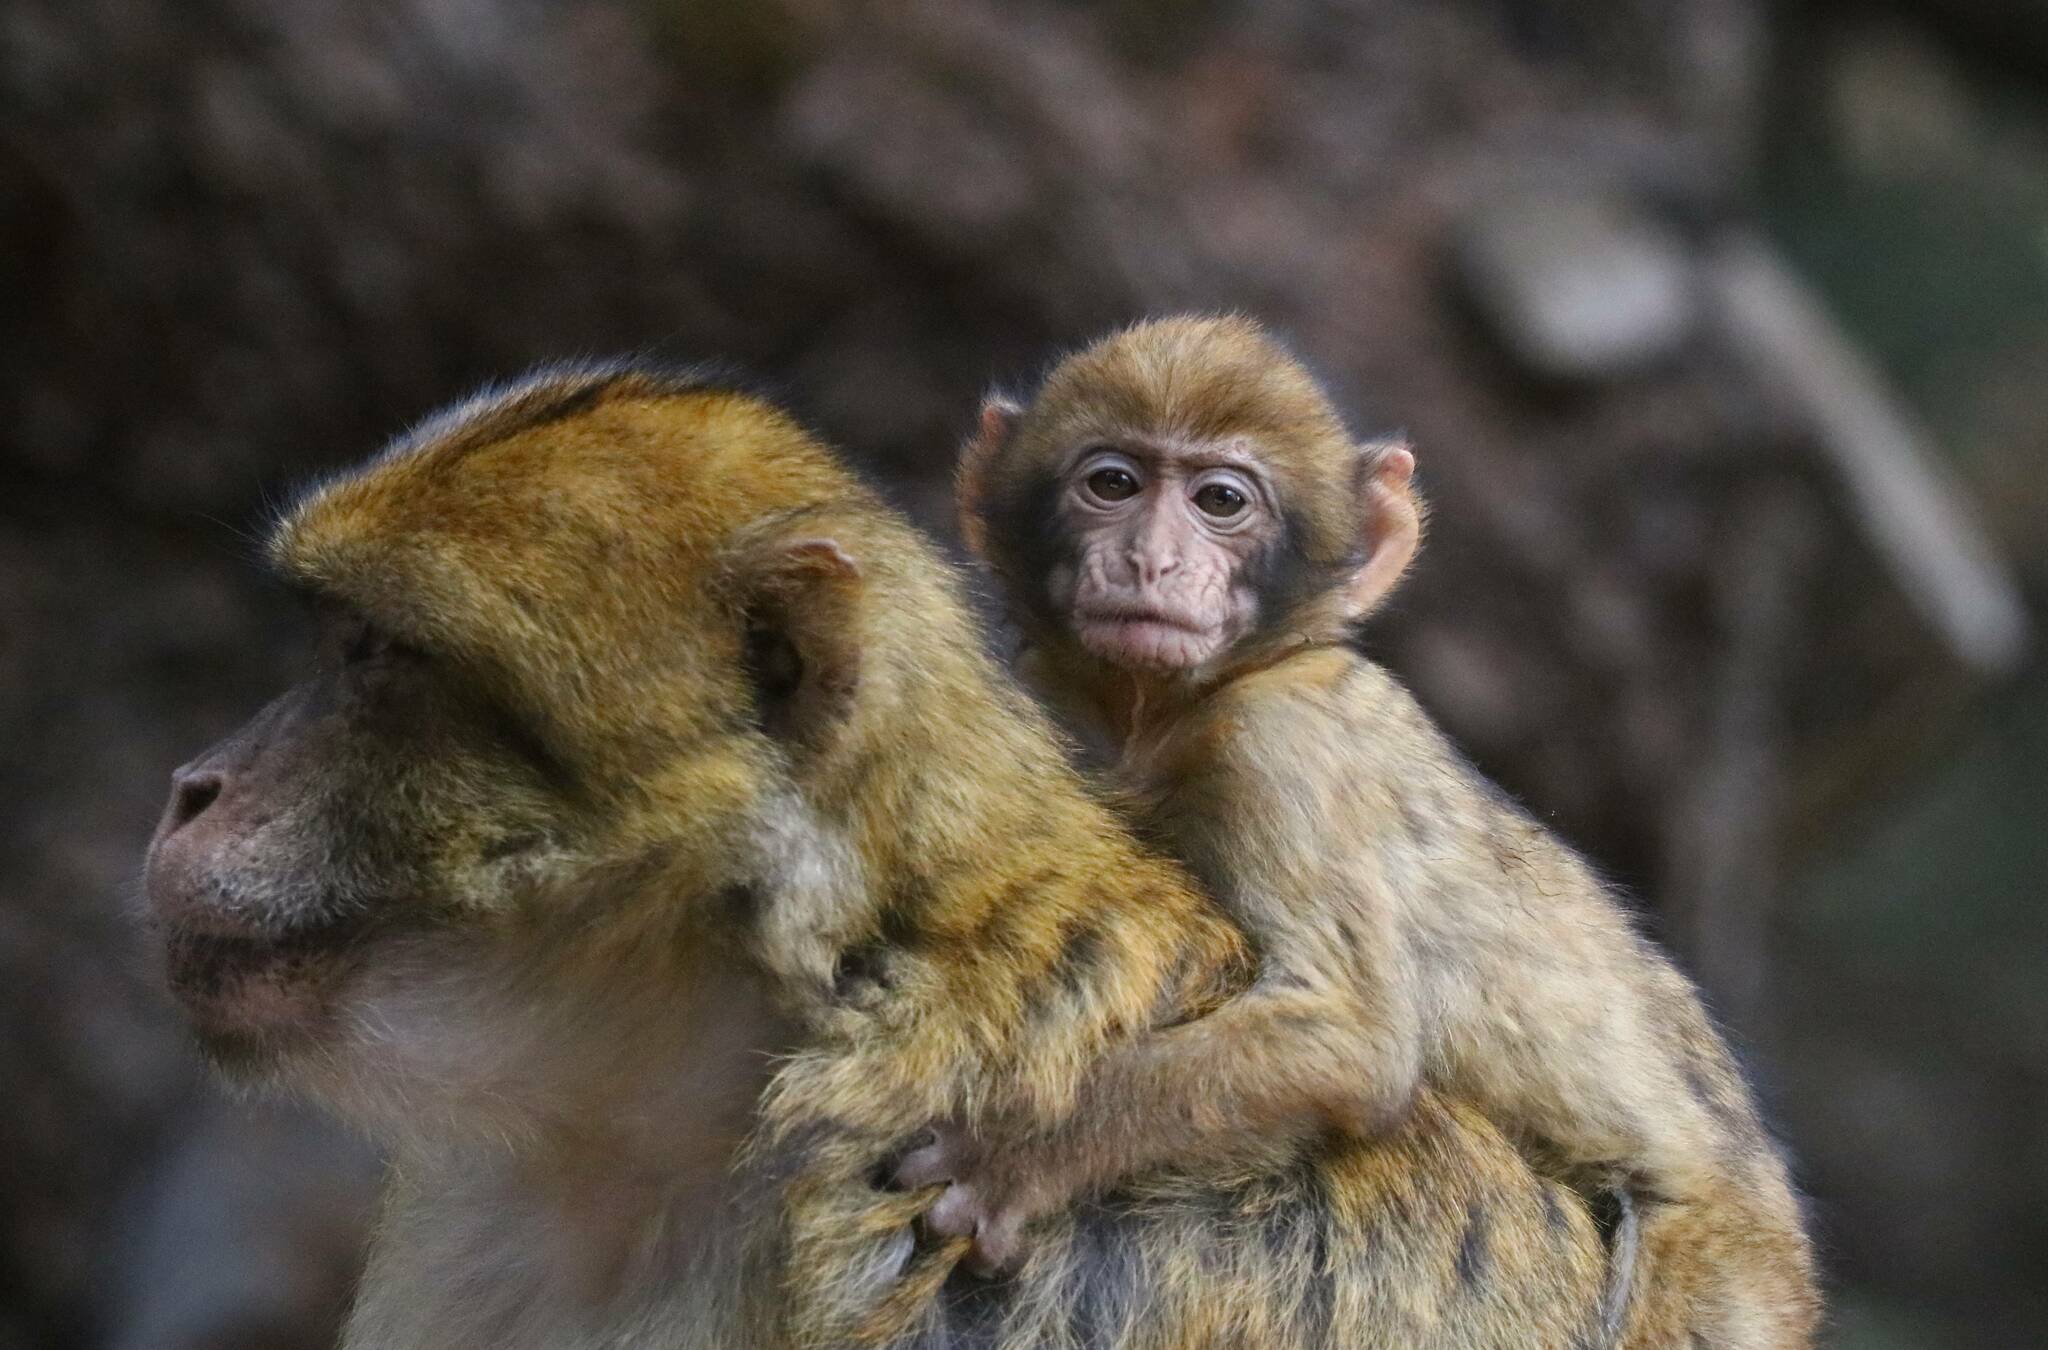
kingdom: Animalia
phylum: Chordata
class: Mammalia
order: Primates
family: Cercopithecidae
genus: Macaca
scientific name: Macaca sylvanus
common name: Barbary macaque
